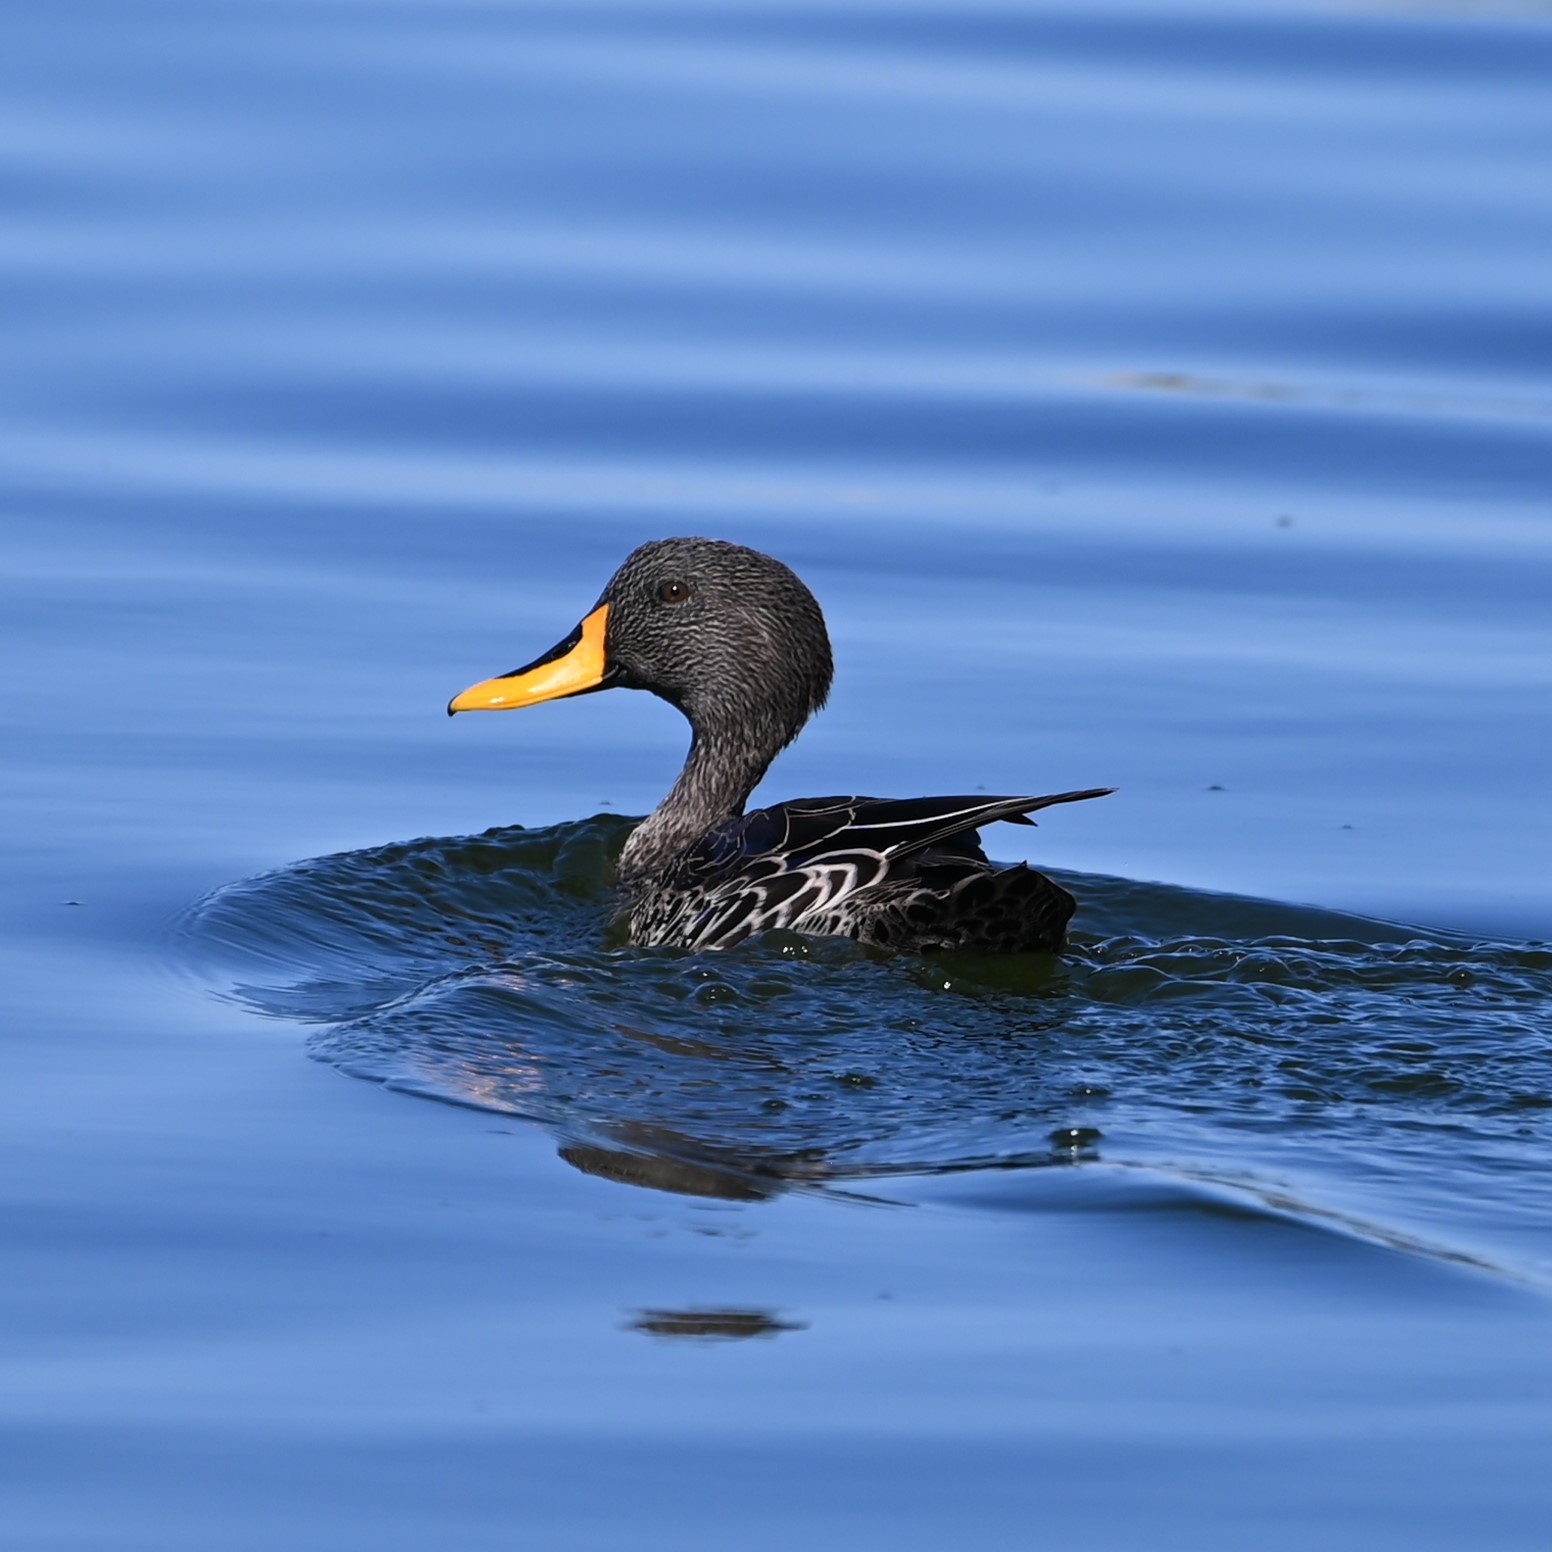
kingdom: Animalia
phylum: Chordata
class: Aves
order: Anseriformes
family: Anatidae
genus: Anas
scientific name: Anas undulata
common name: Yellow-billed duck
